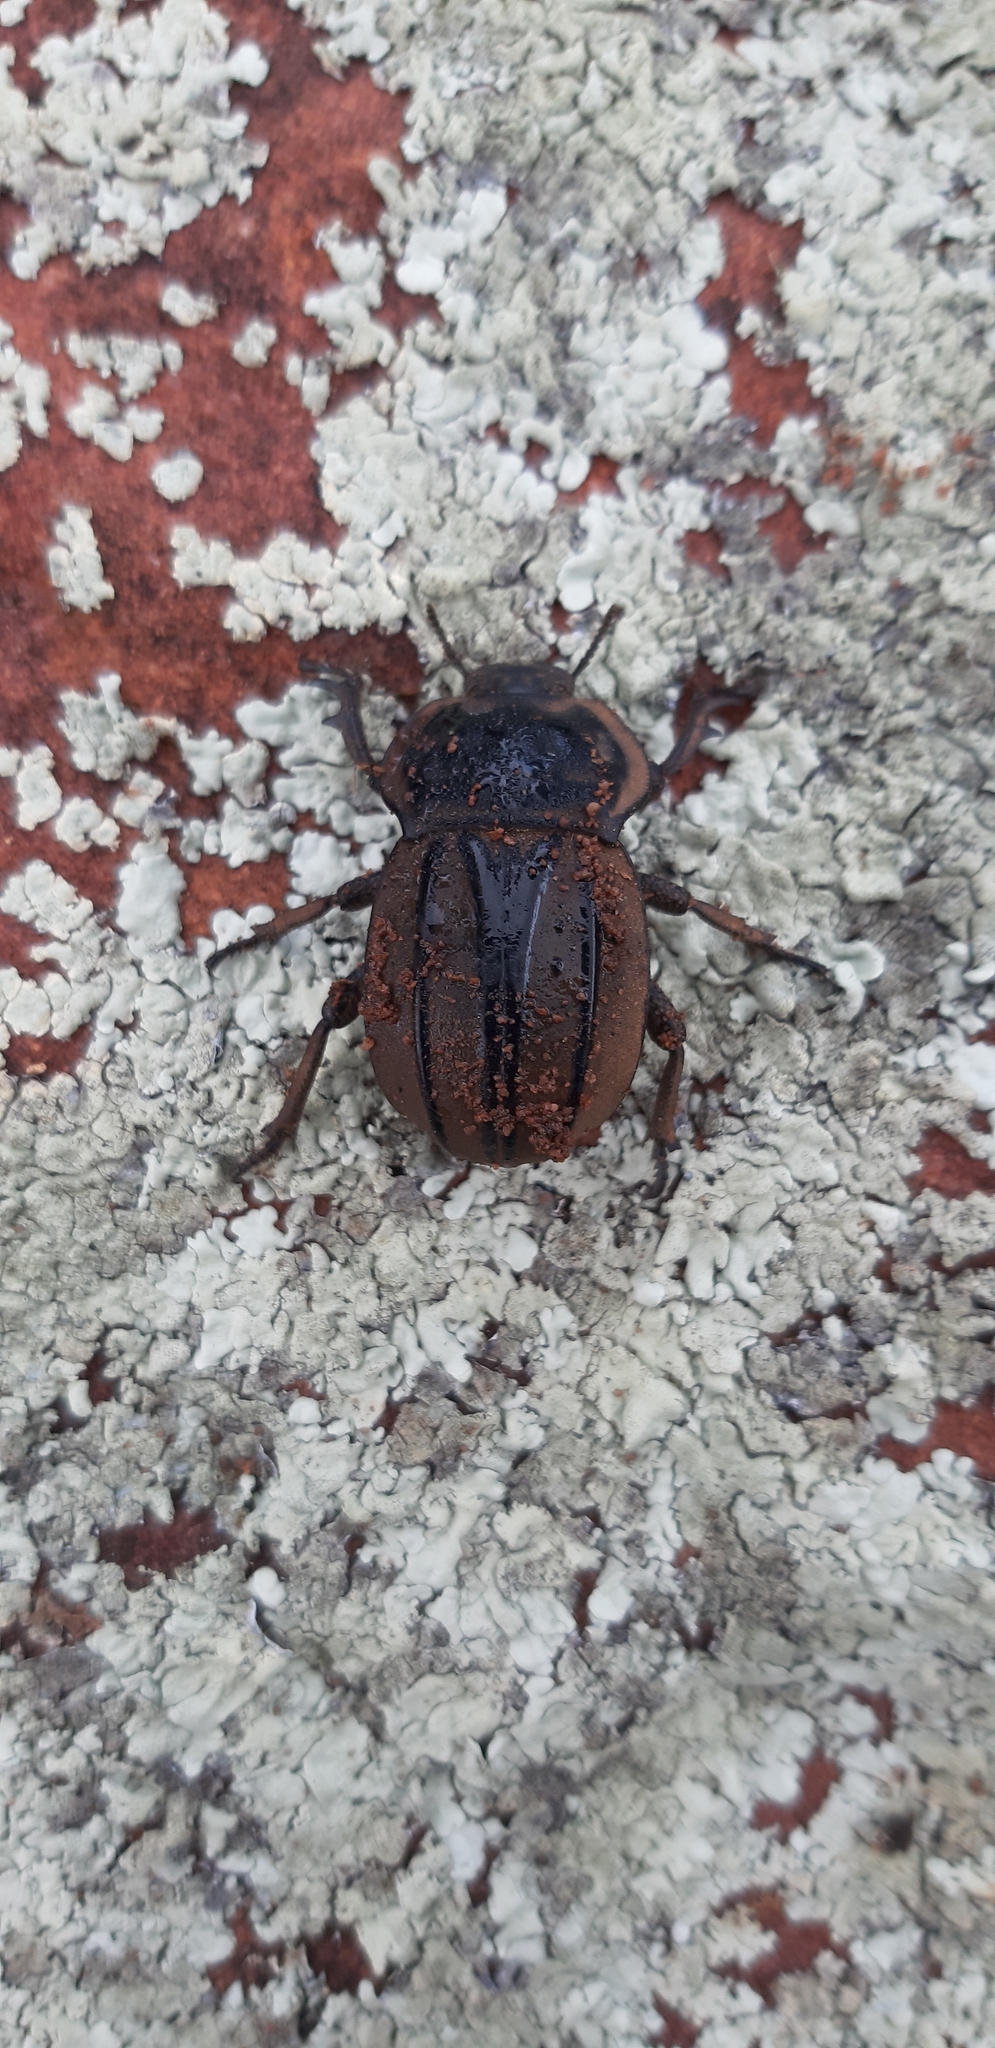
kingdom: Animalia
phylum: Arthropoda
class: Insecta
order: Coleoptera
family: Tenebrionidae
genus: Anomalipus
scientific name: Anomalipus
